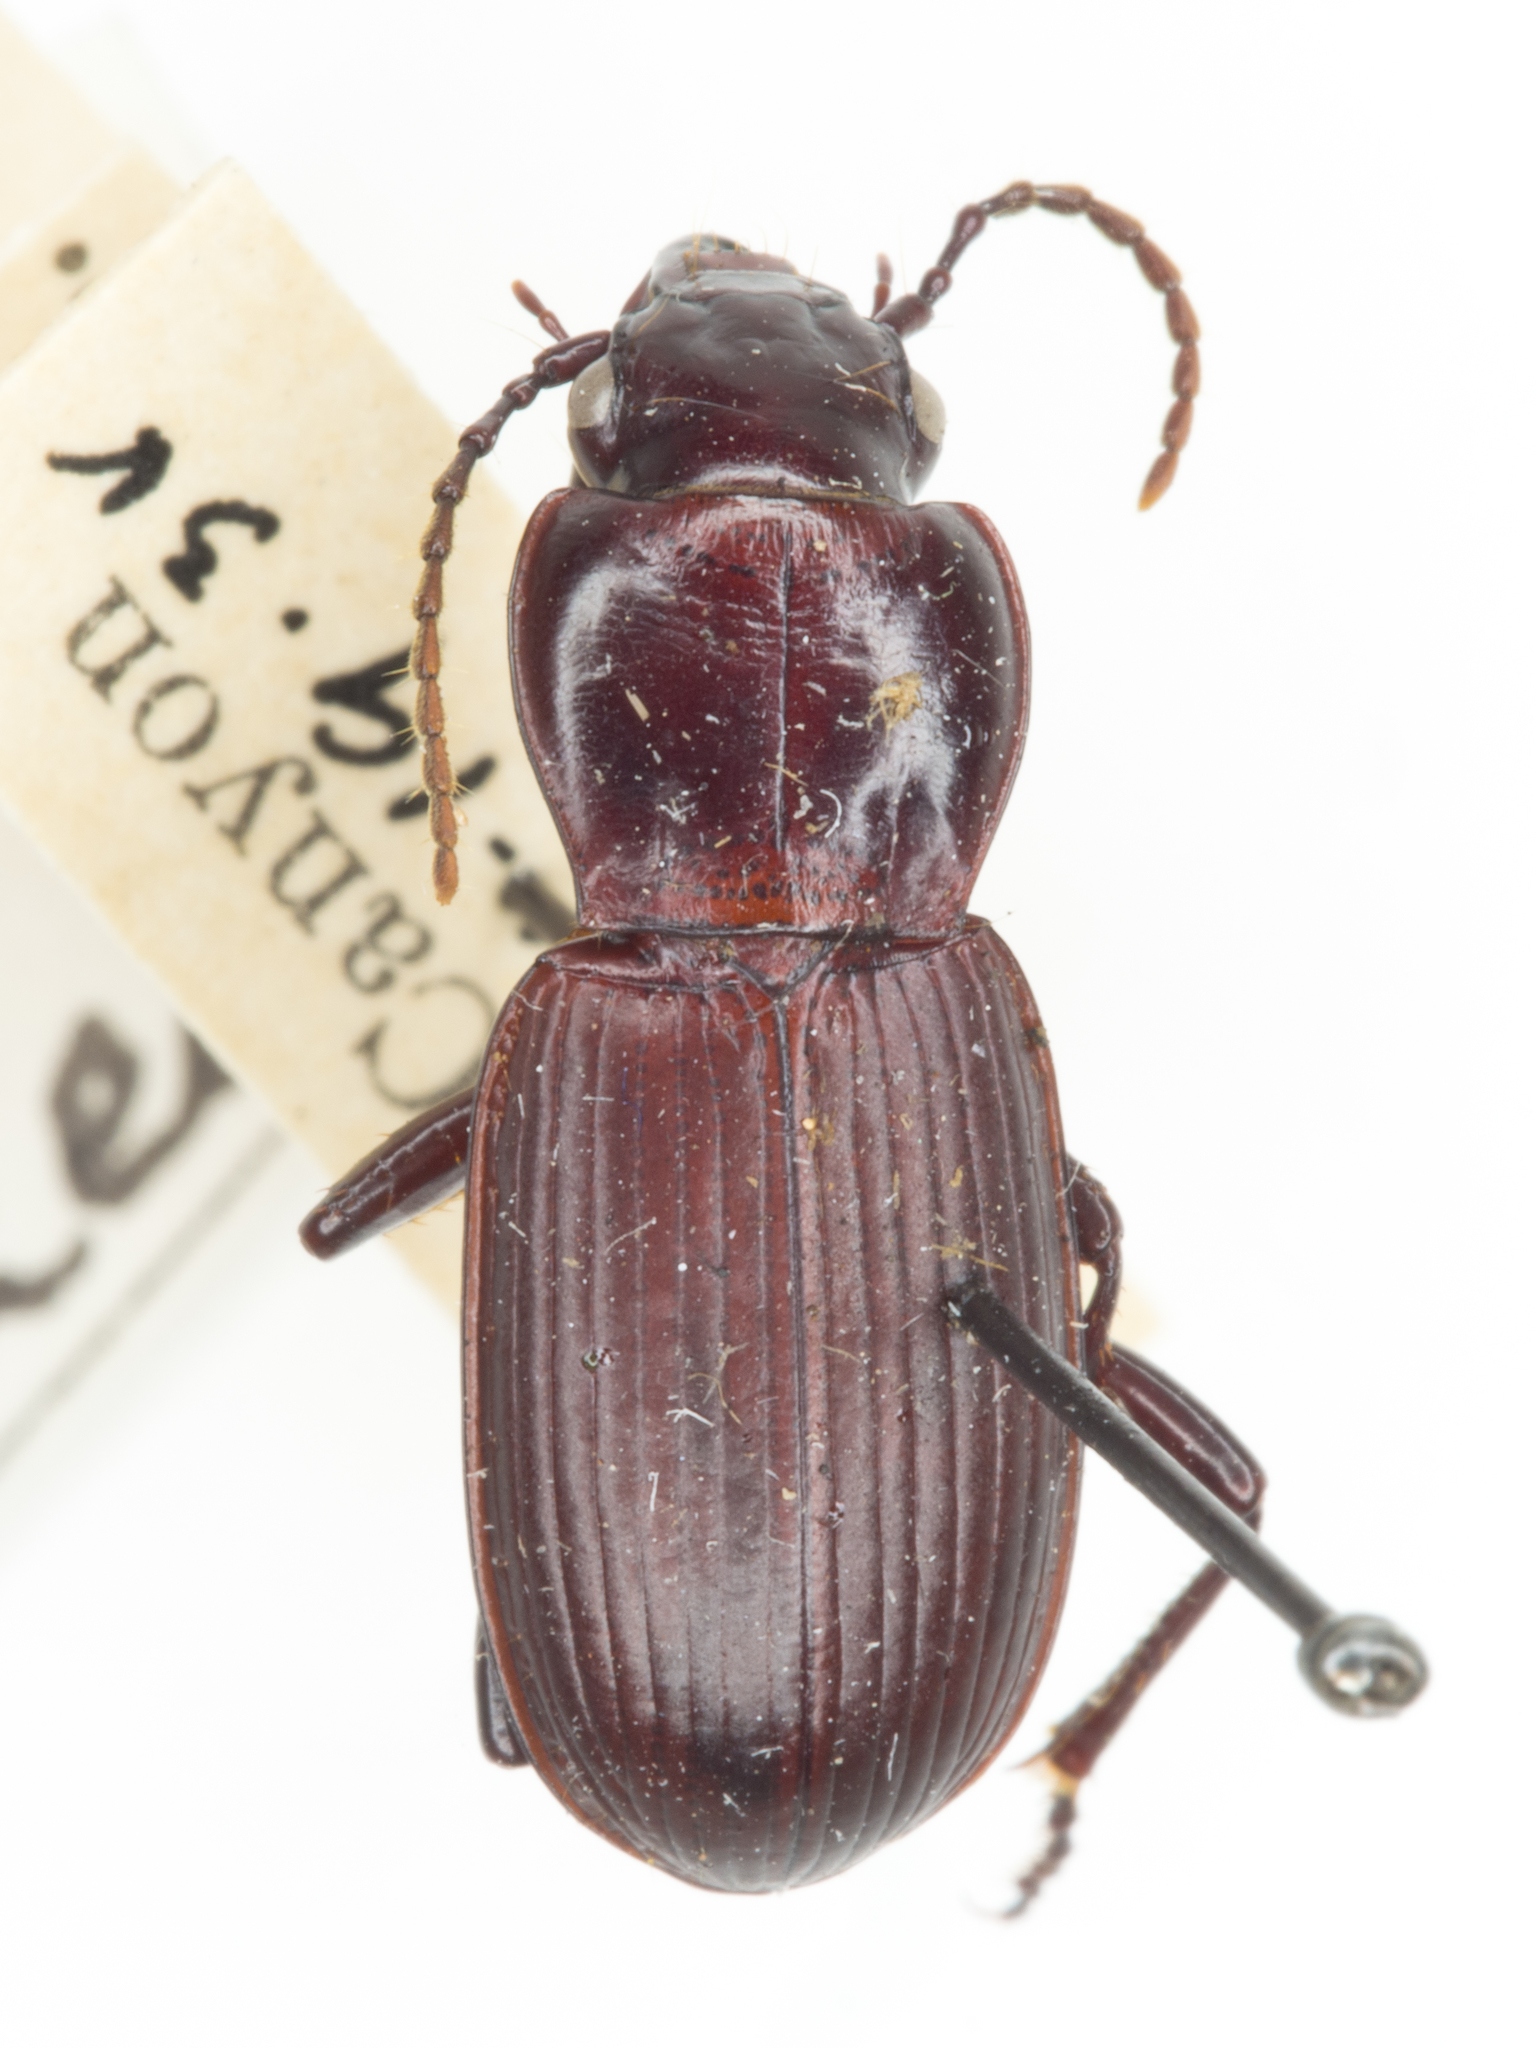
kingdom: Animalia
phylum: Arthropoda
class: Insecta
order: Coleoptera
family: Carabidae
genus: Pterostichus
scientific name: Pterostichus isabellae
